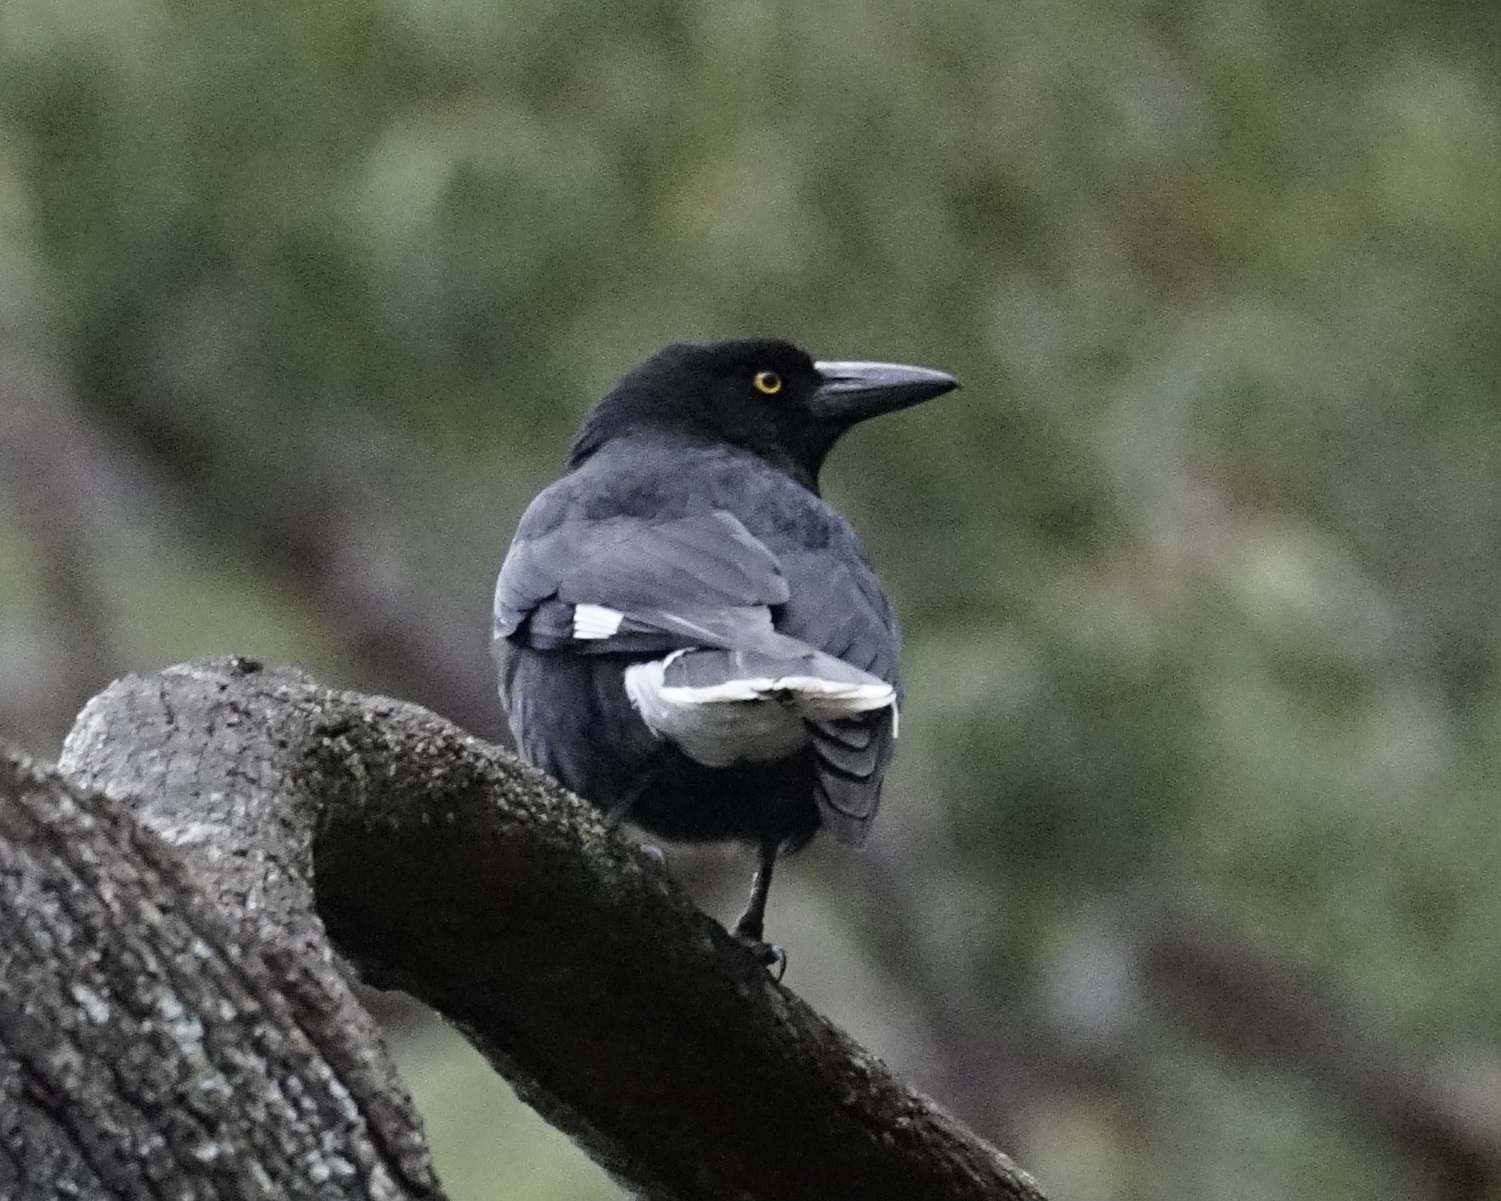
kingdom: Animalia
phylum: Chordata
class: Aves
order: Passeriformes
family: Cracticidae
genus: Strepera
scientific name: Strepera graculina
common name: Pied currawong
